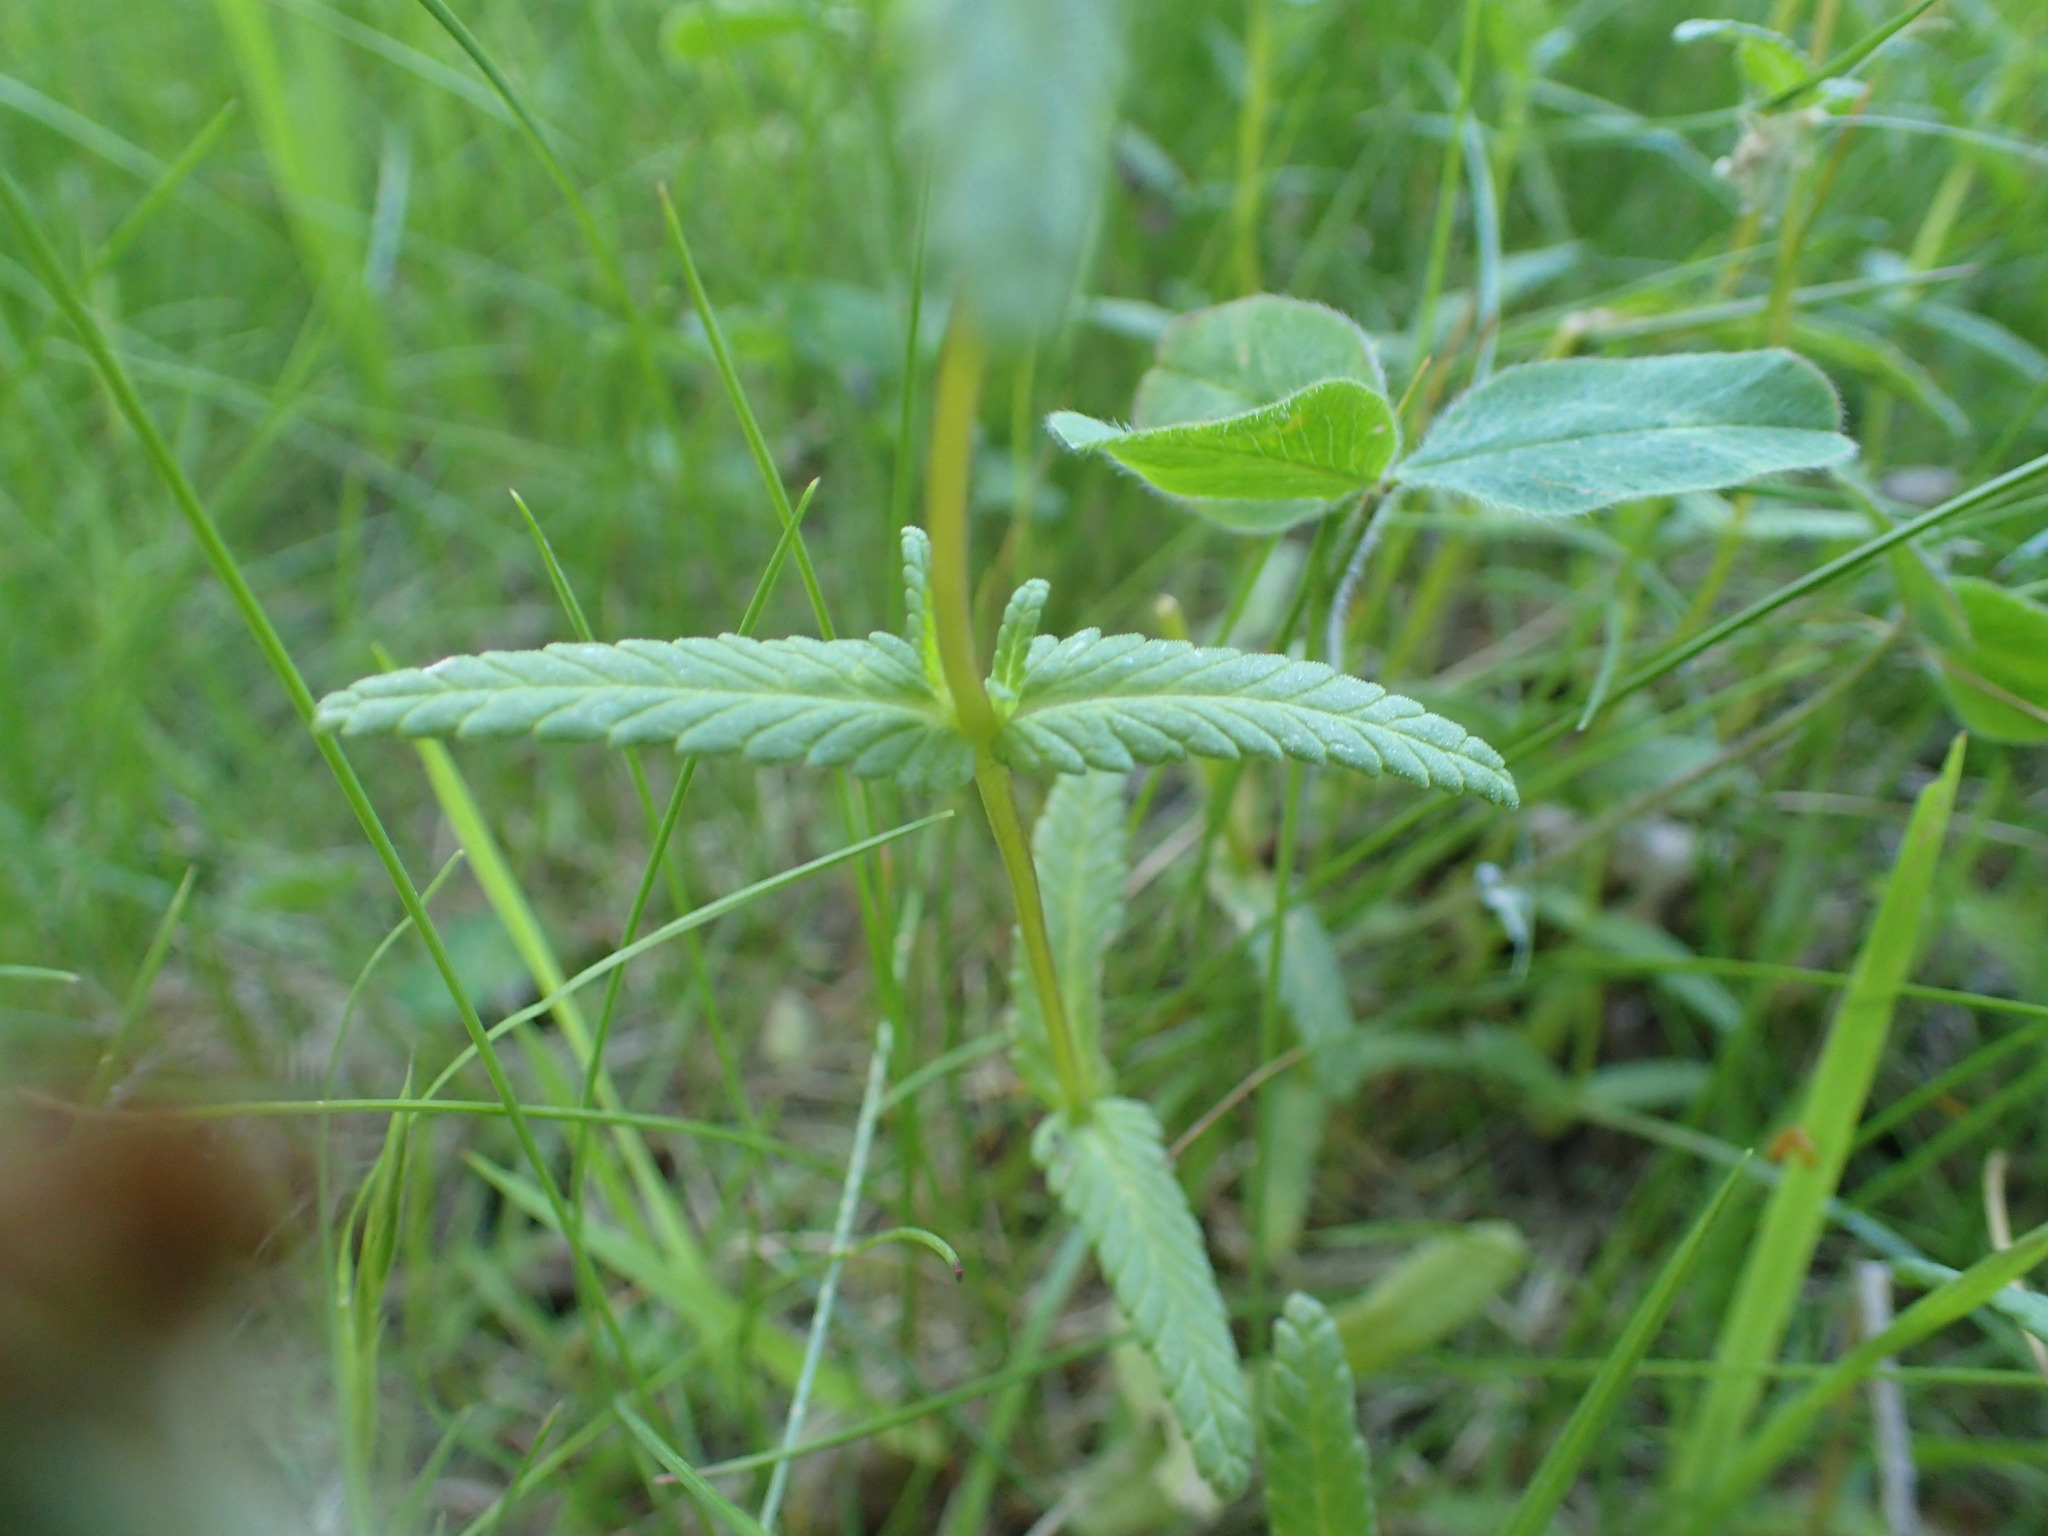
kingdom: Plantae
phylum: Tracheophyta
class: Magnoliopsida
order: Lamiales
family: Orobanchaceae
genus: Rhinanthus
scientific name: Rhinanthus minor
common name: Yellow-rattle
